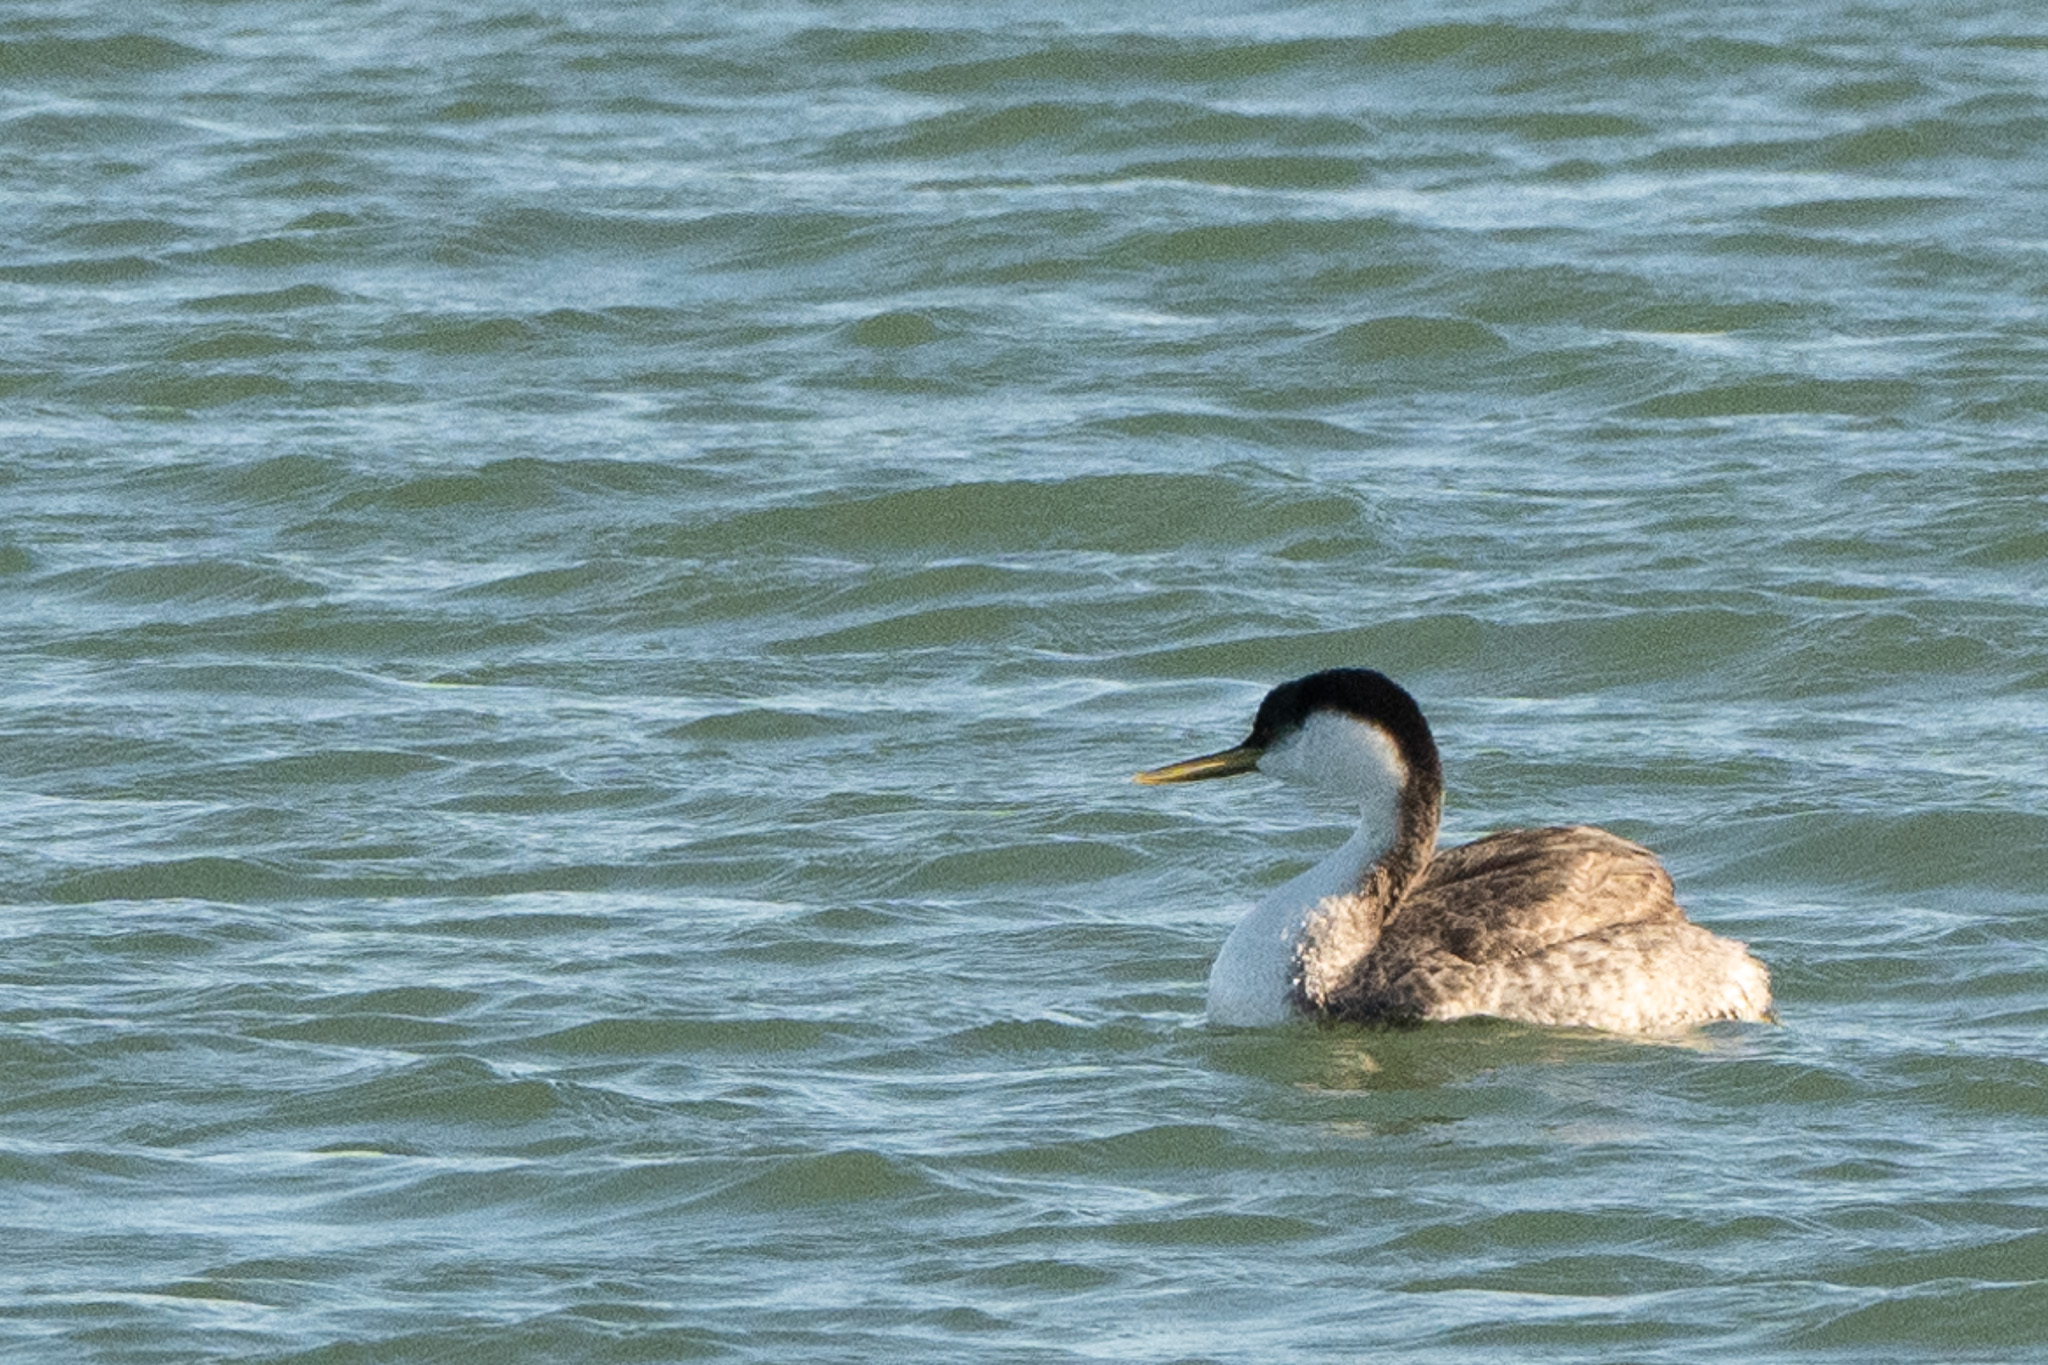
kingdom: Animalia
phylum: Chordata
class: Aves
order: Podicipediformes
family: Podicipedidae
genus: Aechmophorus
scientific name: Aechmophorus occidentalis
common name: Western grebe
